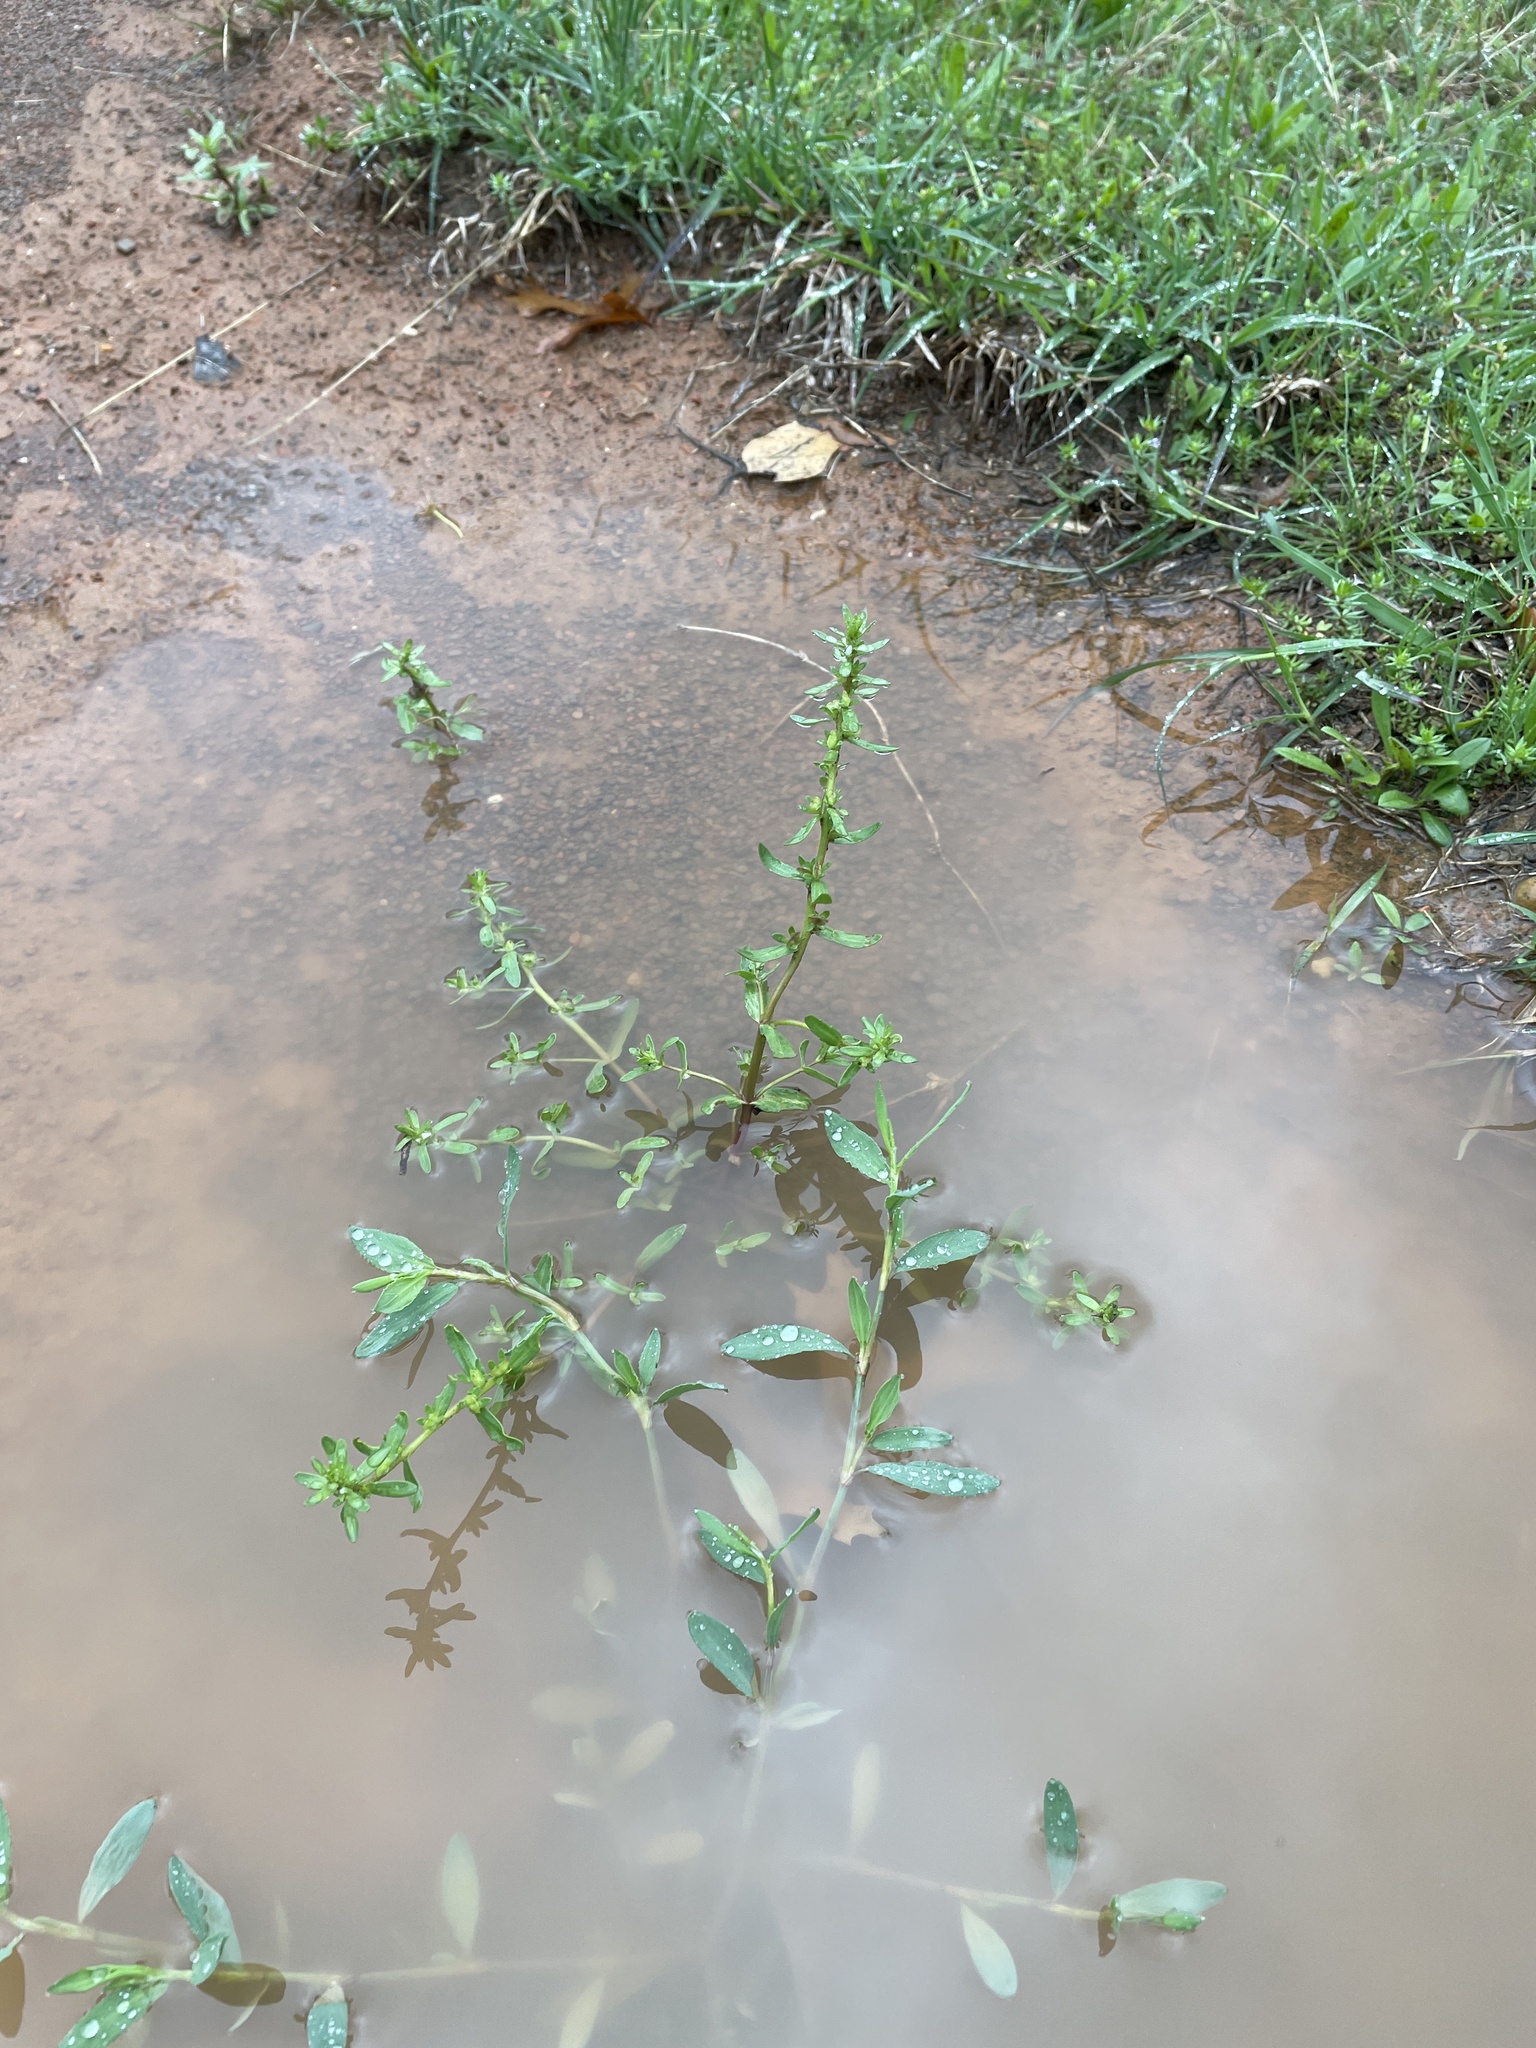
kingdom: Plantae
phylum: Tracheophyta
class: Magnoliopsida
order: Lamiales
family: Plantaginaceae
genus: Veronica
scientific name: Veronica peregrina
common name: Neckweed
